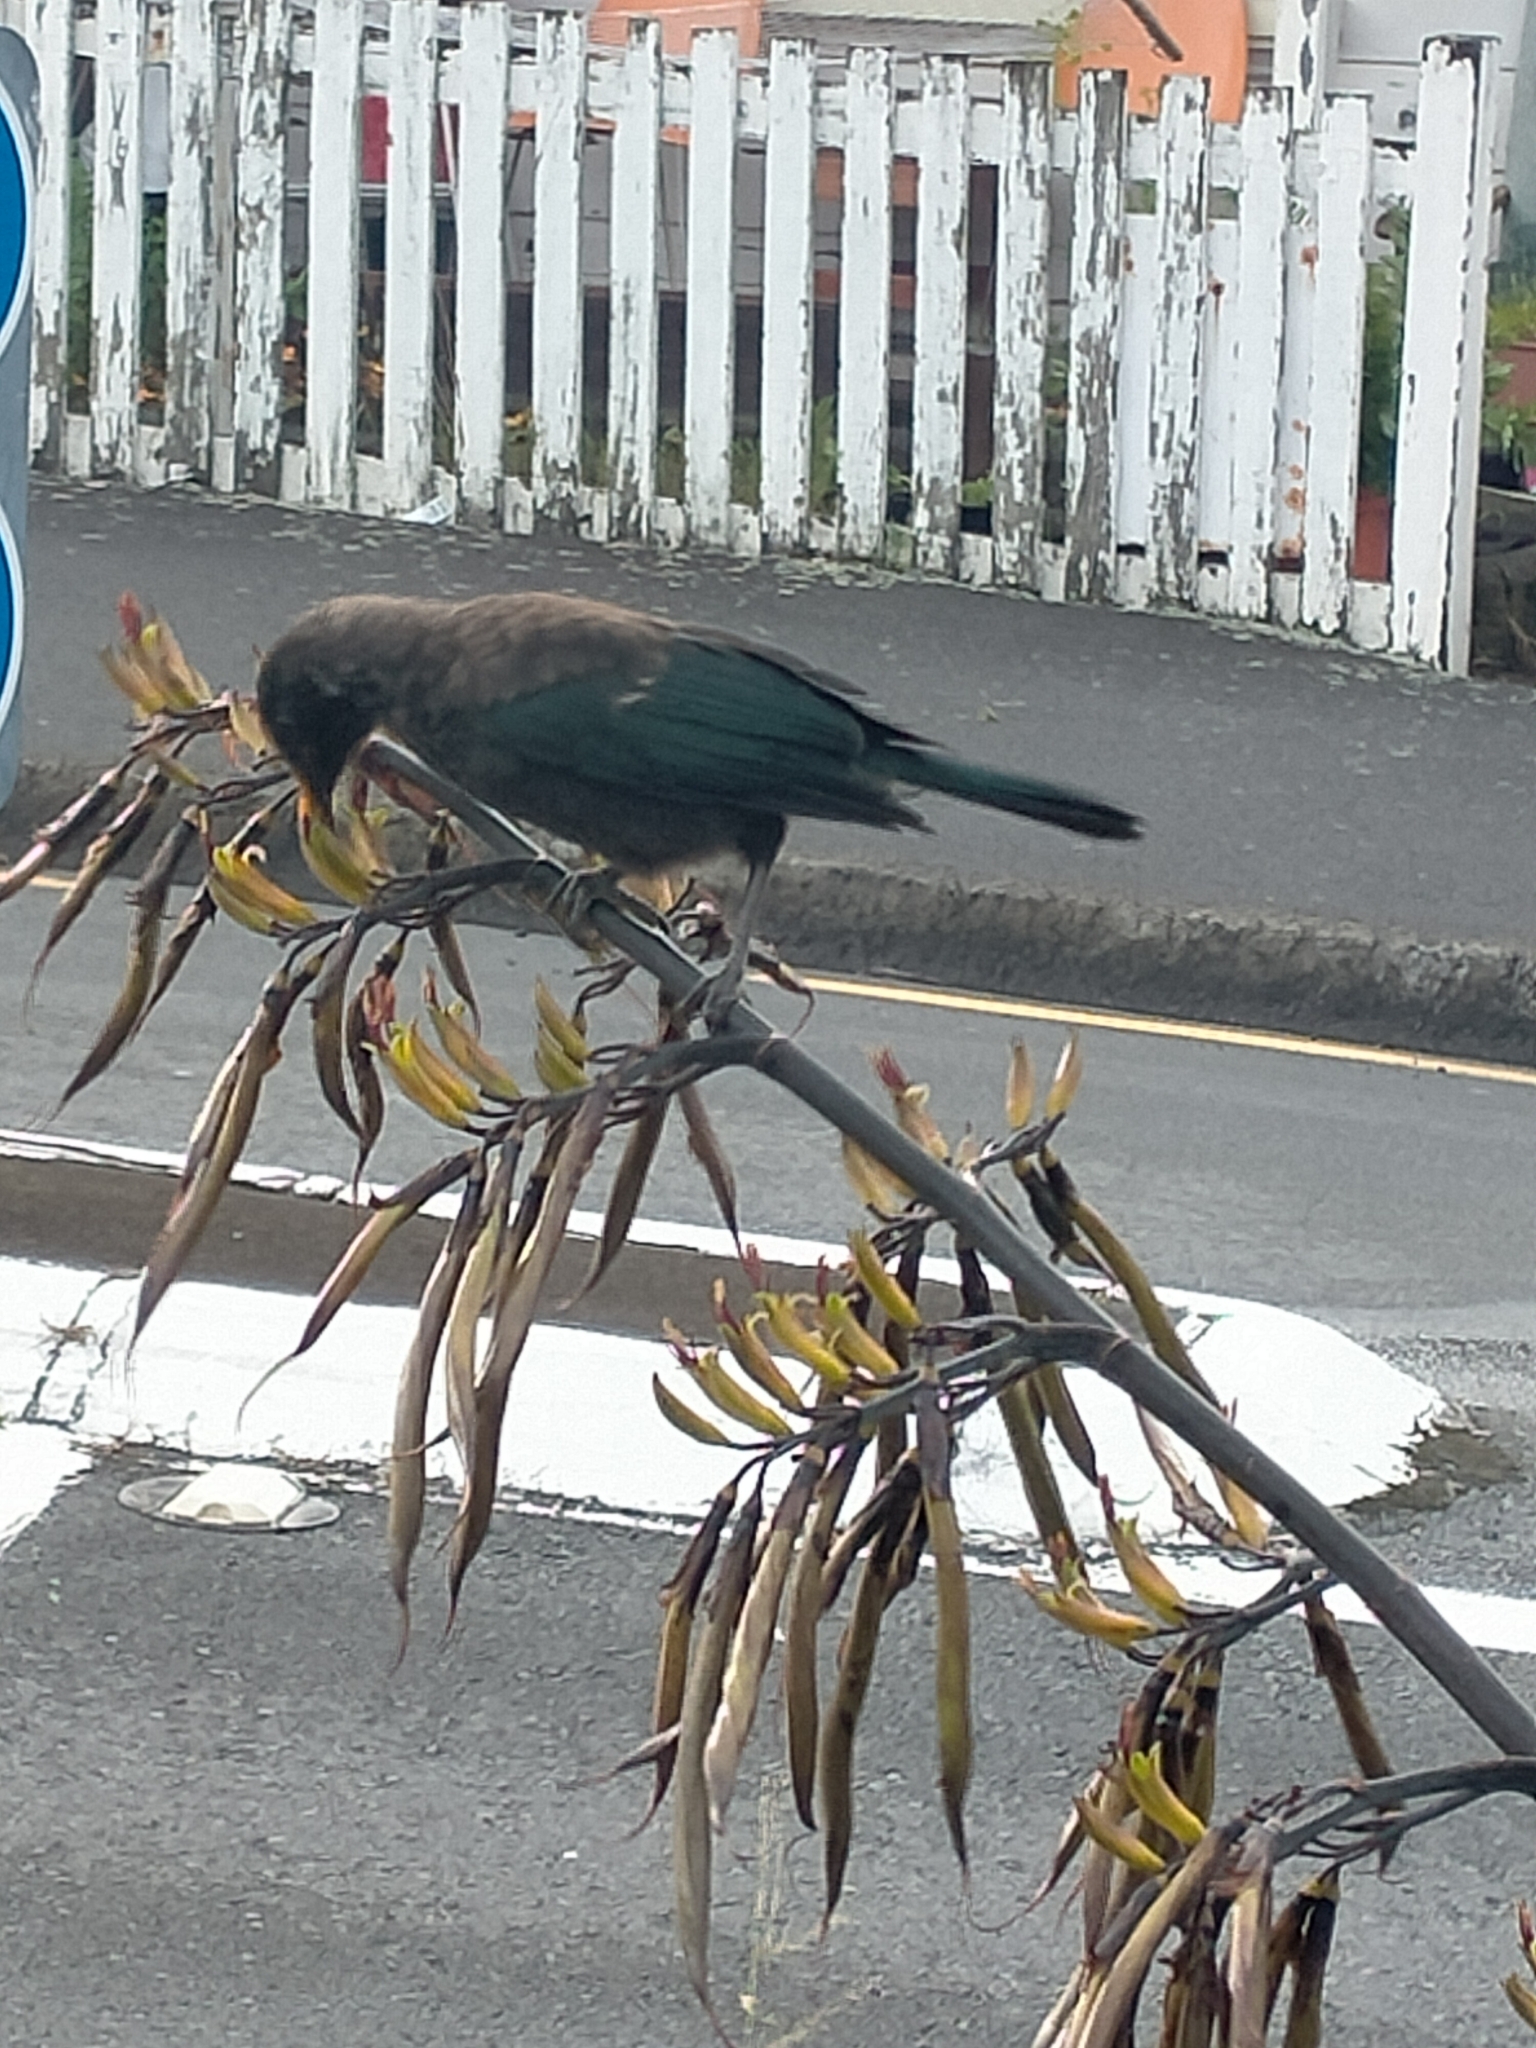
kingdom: Animalia
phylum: Chordata
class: Aves
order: Passeriformes
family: Meliphagidae
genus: Prosthemadera
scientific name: Prosthemadera novaeseelandiae
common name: Tui
